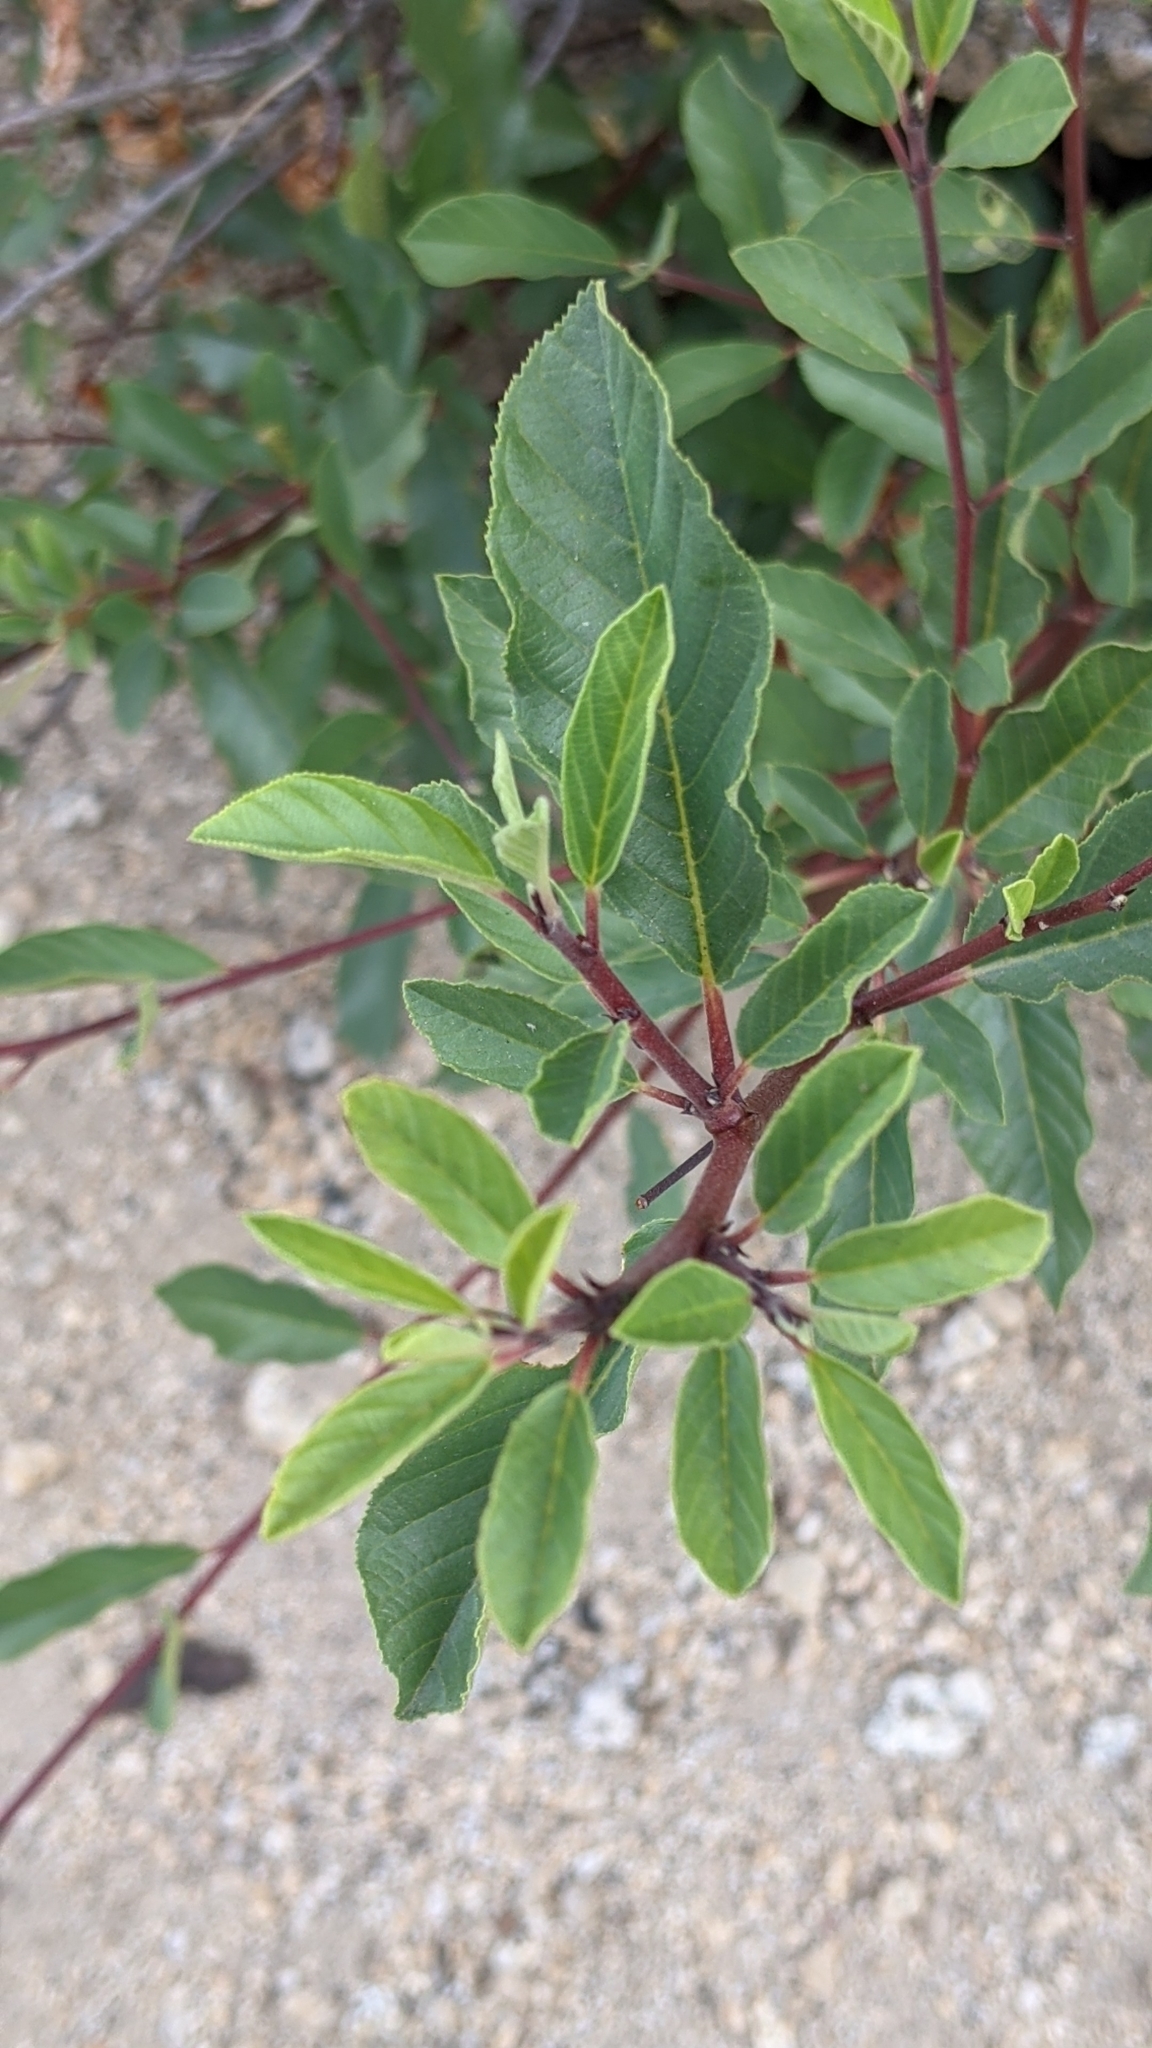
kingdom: Plantae
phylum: Tracheophyta
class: Magnoliopsida
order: Rosales
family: Rosaceae
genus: Prunus
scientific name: Prunus emarginata
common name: Bitter cherry
